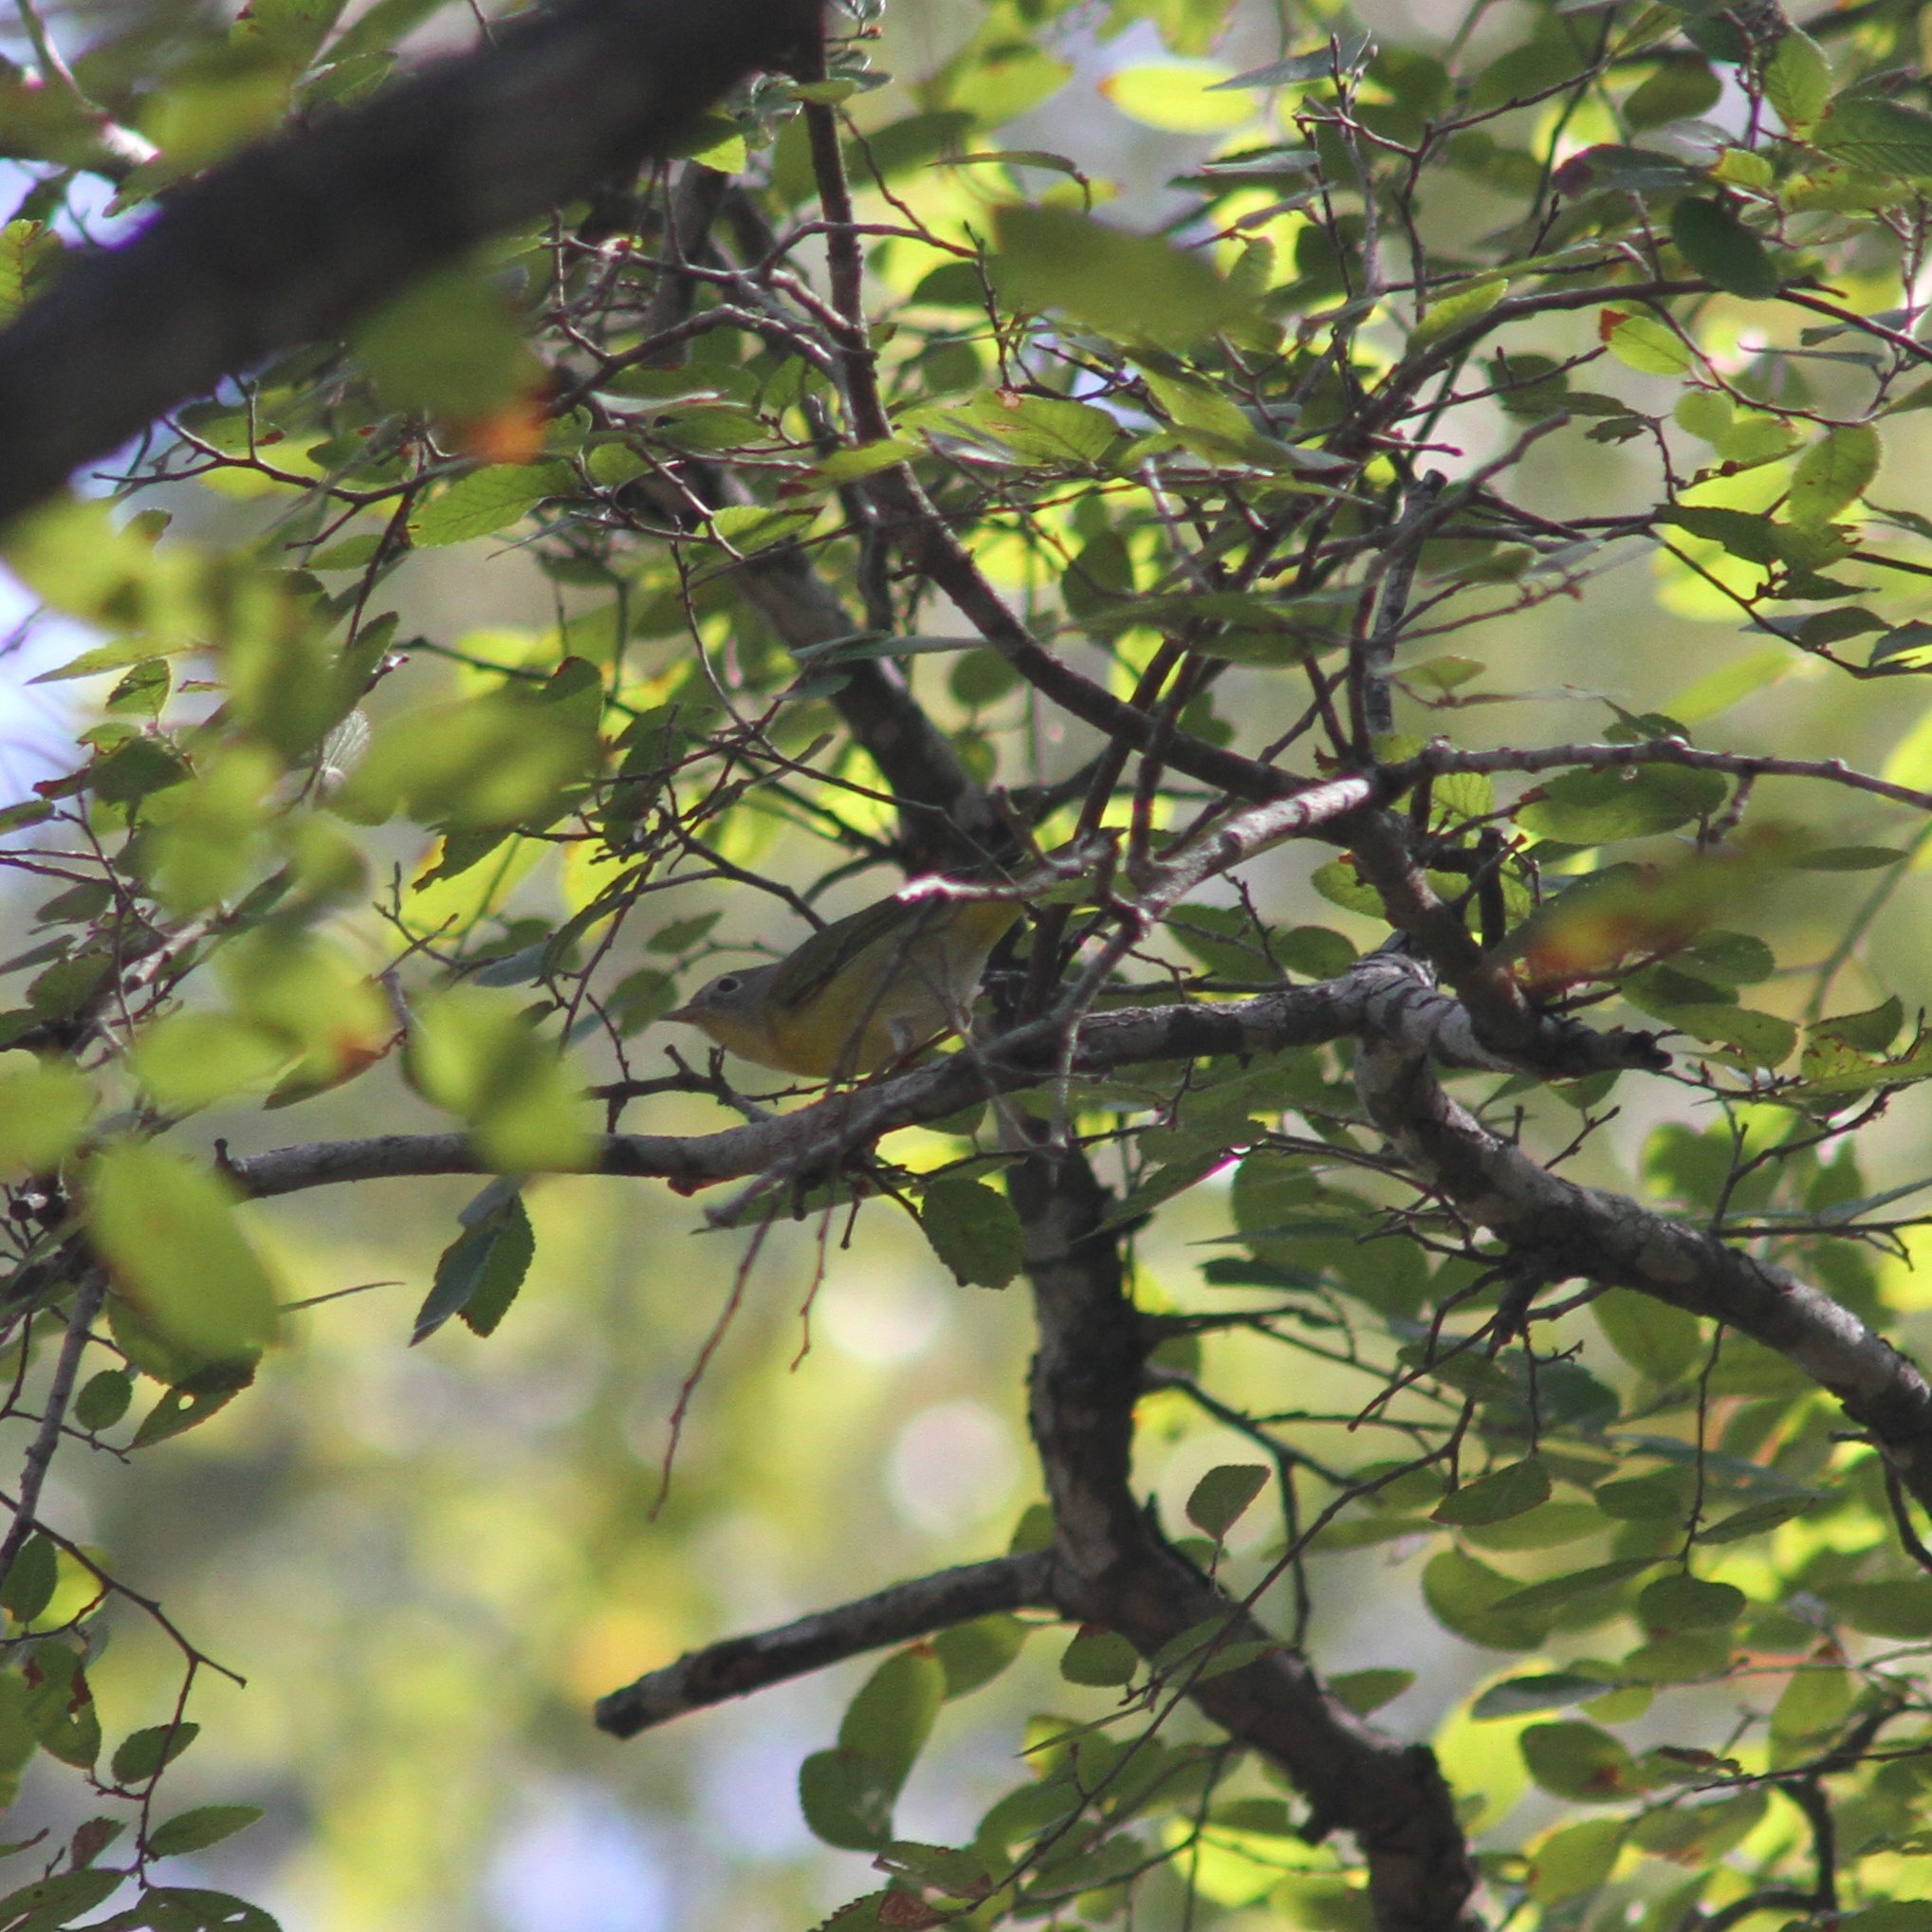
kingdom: Animalia
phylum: Chordata
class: Aves
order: Passeriformes
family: Parulidae
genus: Leiothlypis
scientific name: Leiothlypis ruficapilla
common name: Nashville warbler
